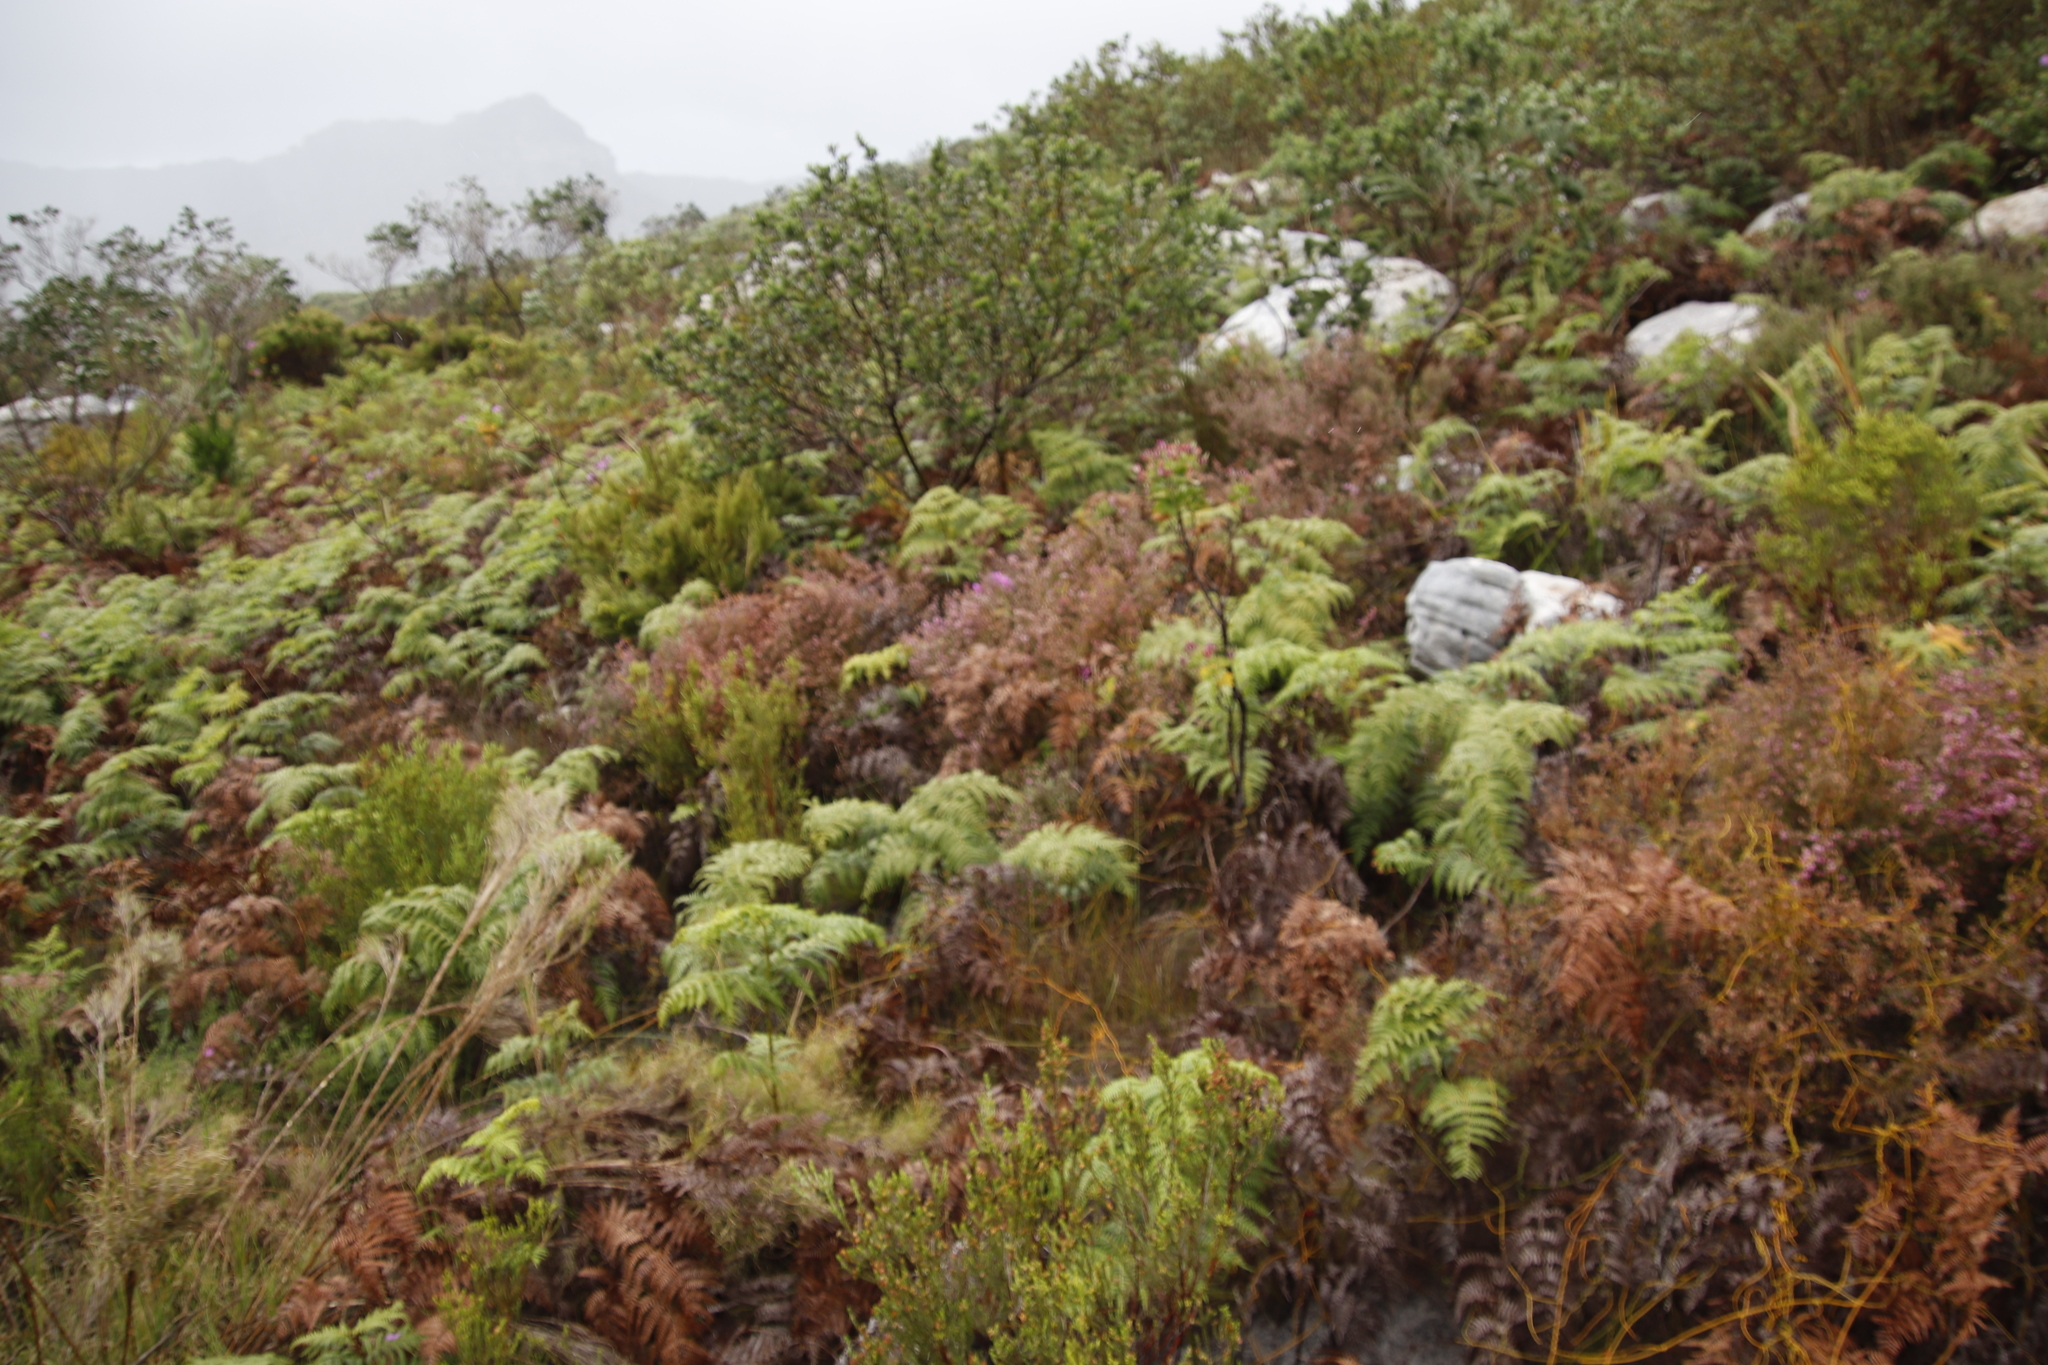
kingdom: Plantae
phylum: Tracheophyta
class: Polypodiopsida
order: Polypodiales
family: Dennstaedtiaceae
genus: Pteridium
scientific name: Pteridium aquilinum
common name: Bracken
